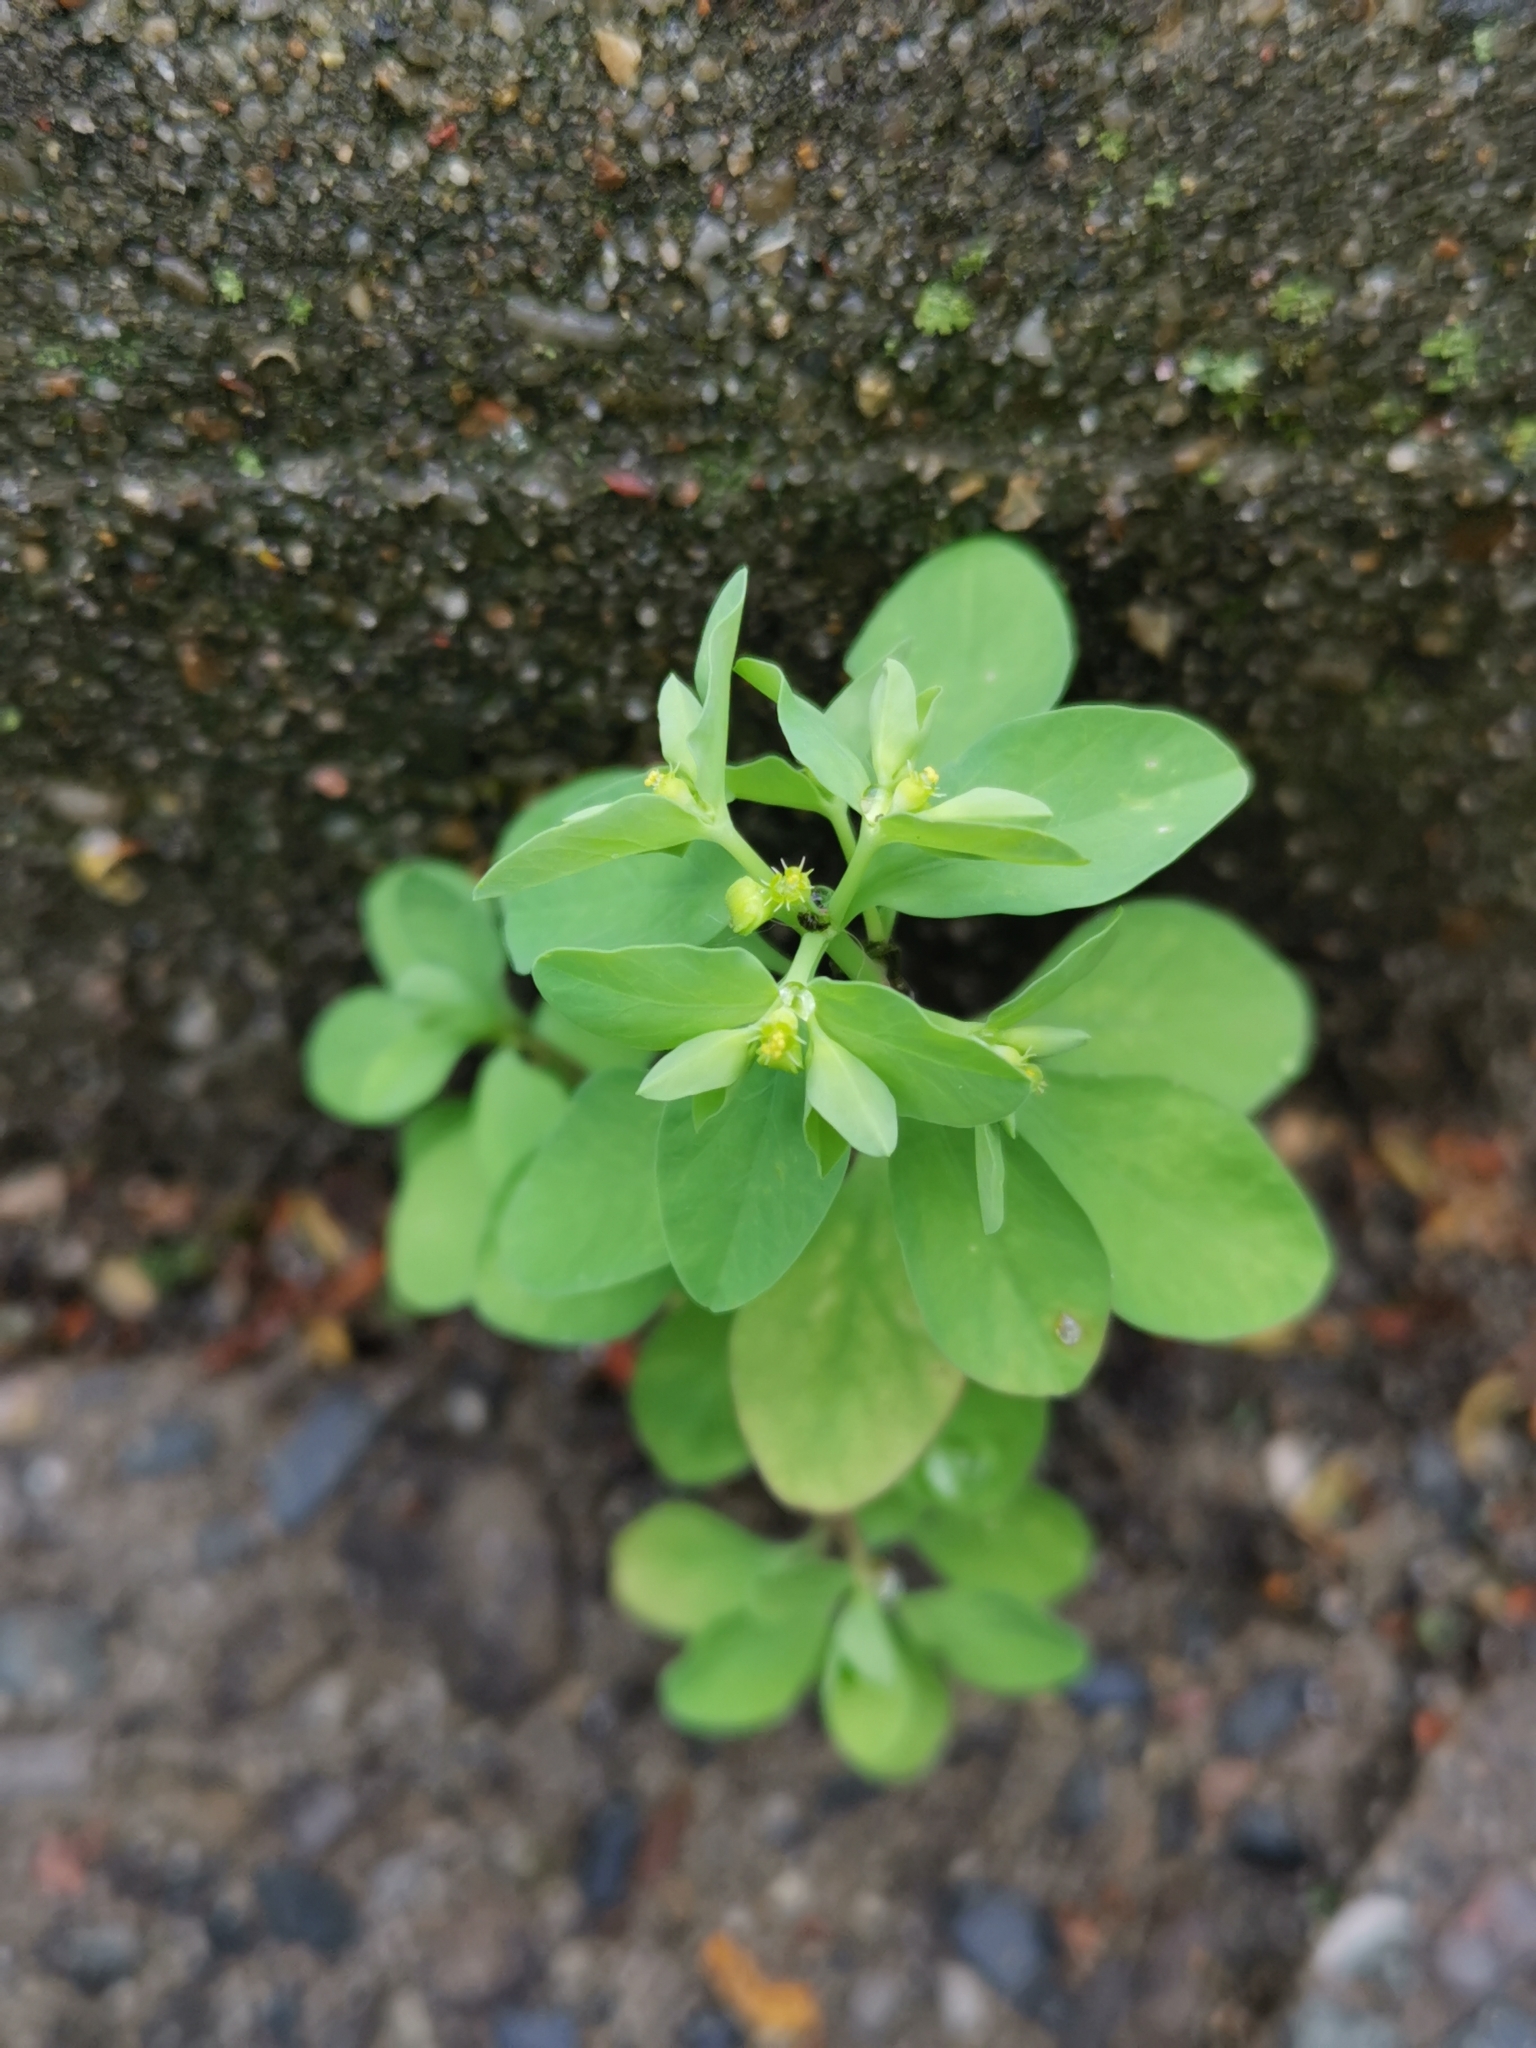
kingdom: Plantae
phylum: Tracheophyta
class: Magnoliopsida
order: Malpighiales
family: Euphorbiaceae
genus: Euphorbia
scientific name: Euphorbia peplus
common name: Petty spurge
